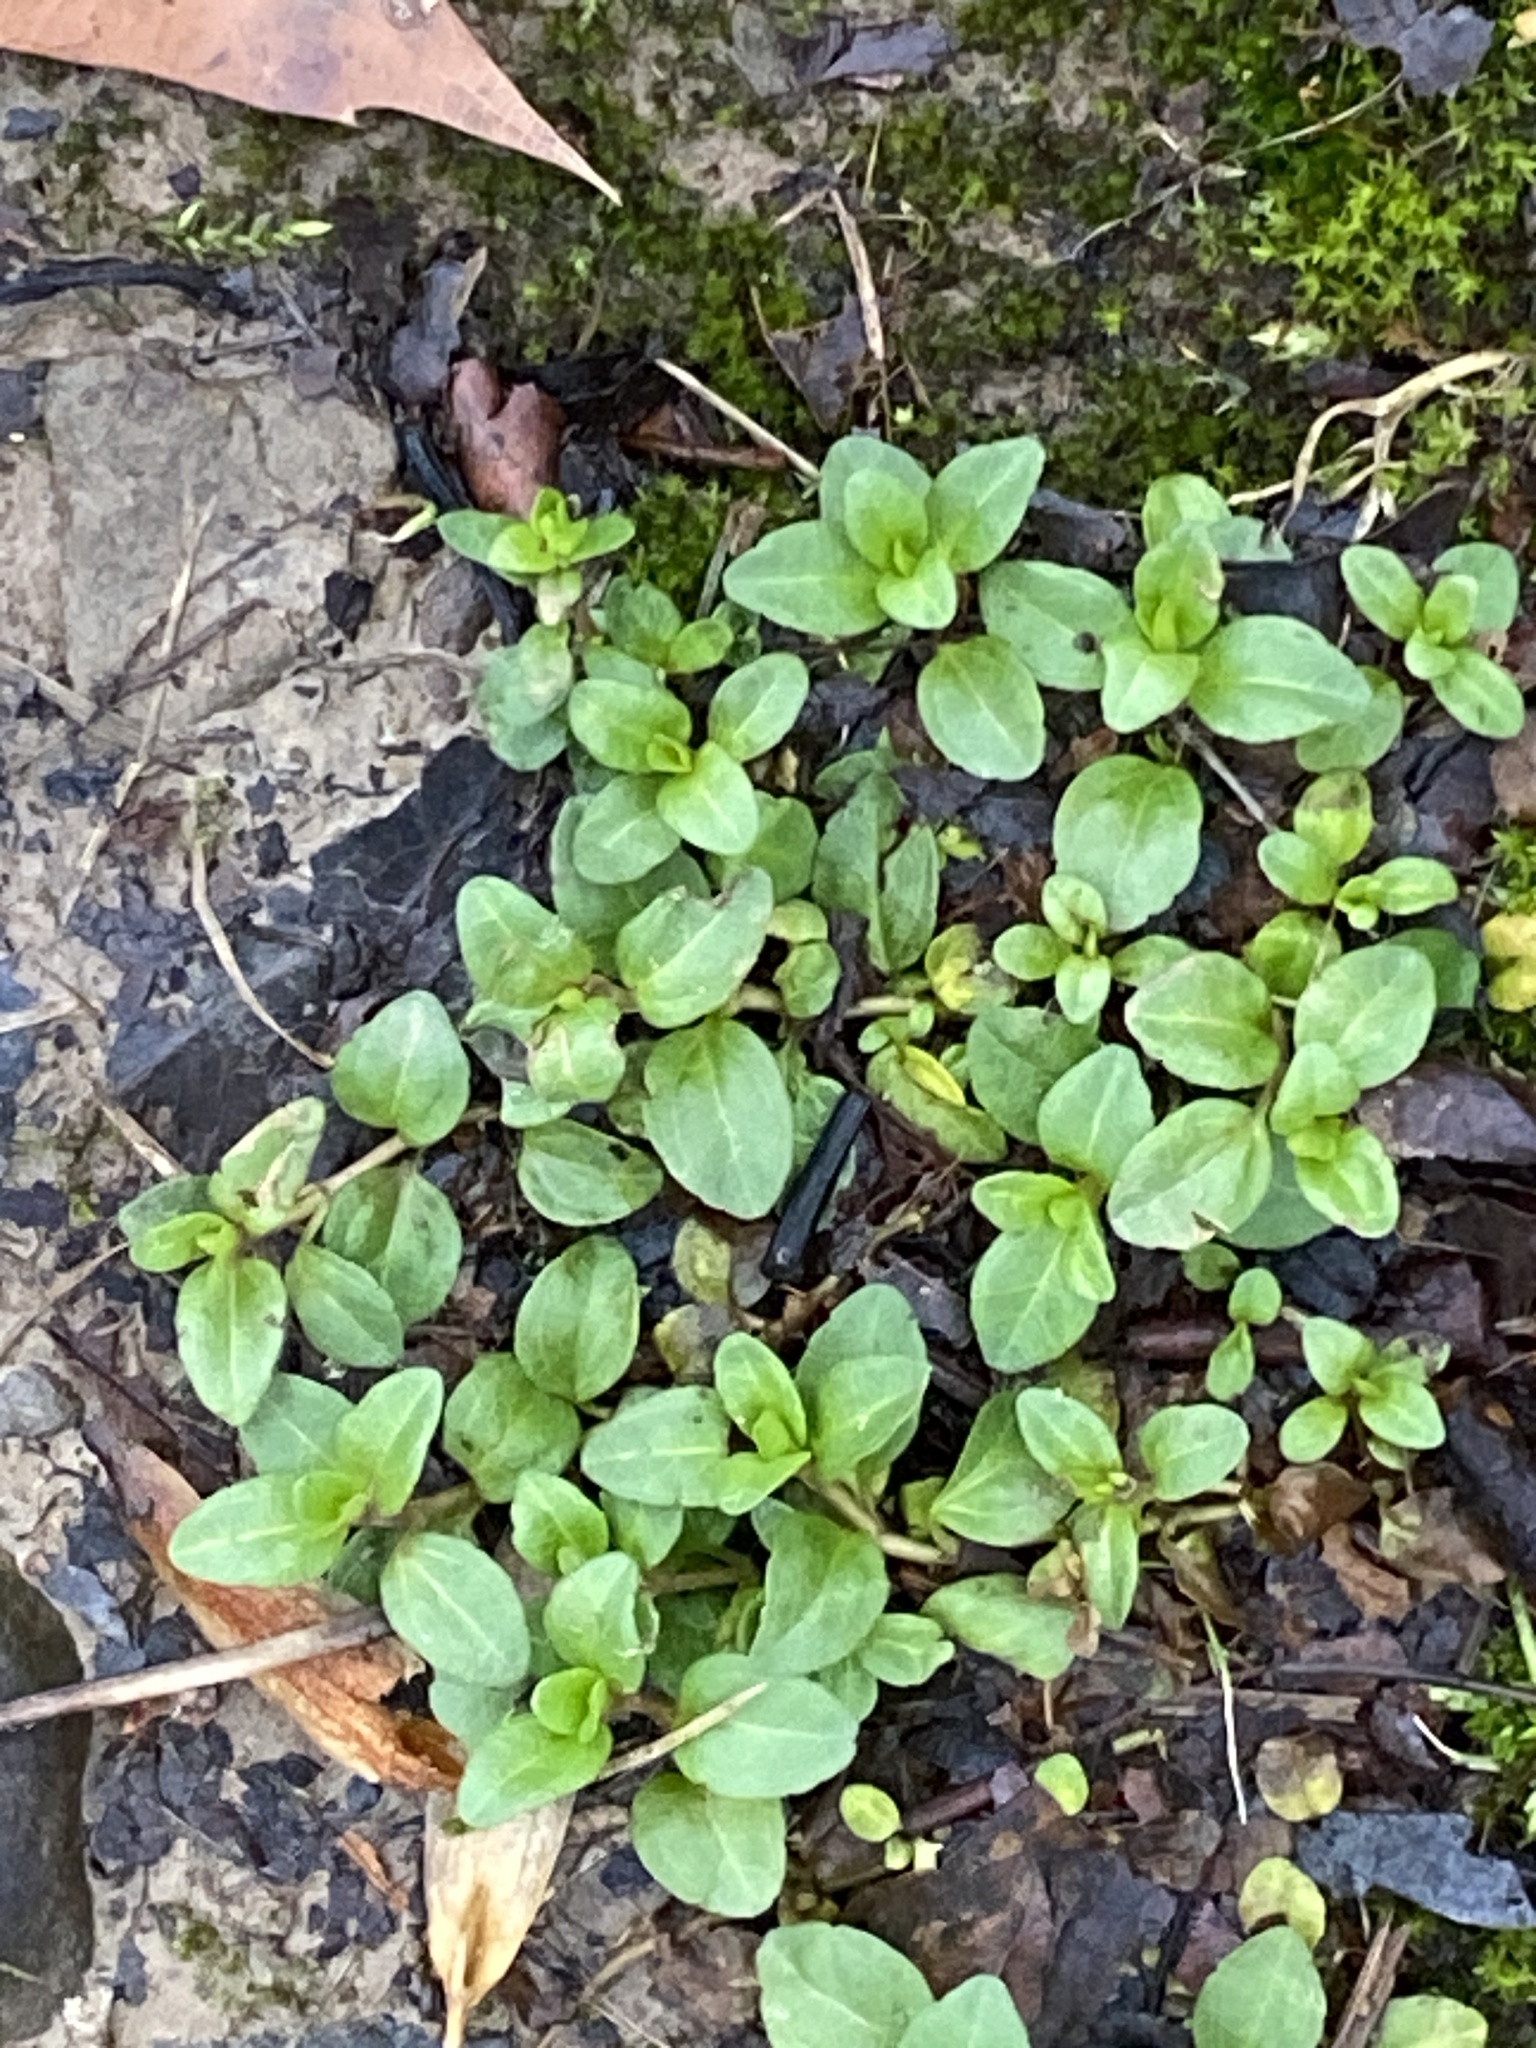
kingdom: Plantae
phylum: Tracheophyta
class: Magnoliopsida
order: Lamiales
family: Plantaginaceae
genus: Veronica
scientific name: Veronica serpyllifolia
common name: Thyme-leaved speedwell
